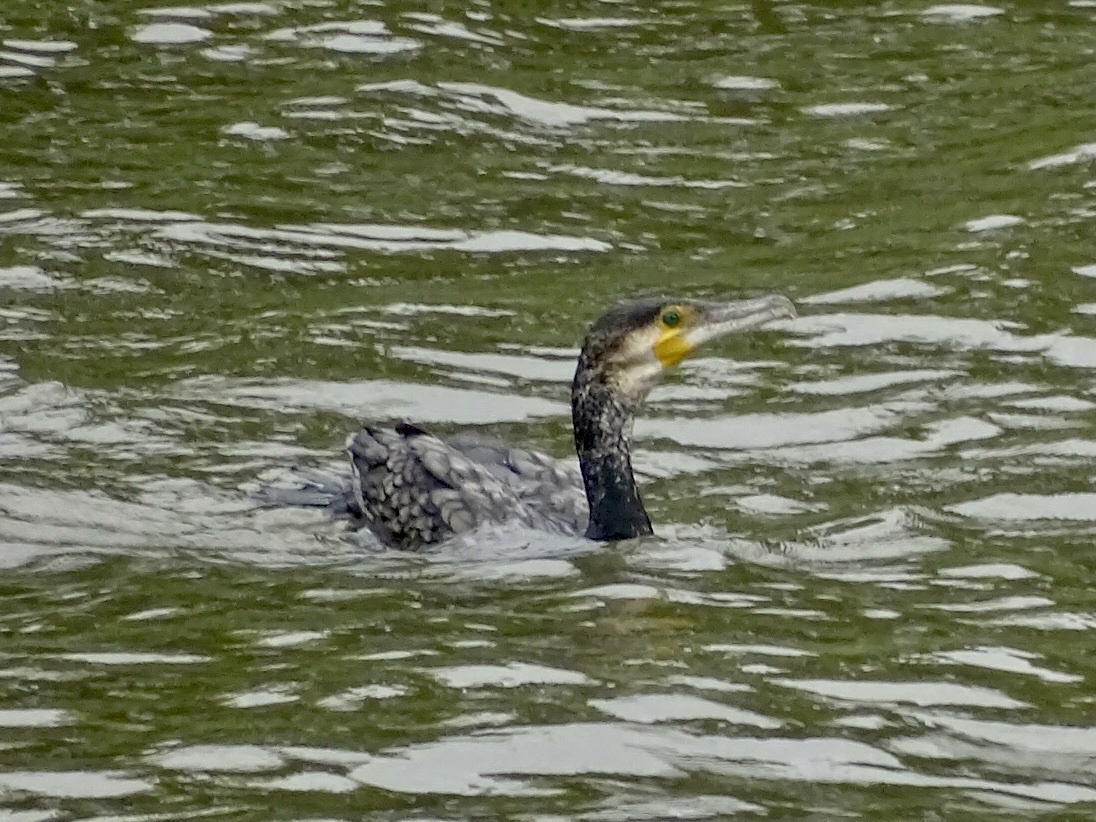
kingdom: Animalia
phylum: Chordata
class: Aves
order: Suliformes
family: Phalacrocoracidae
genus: Phalacrocorax
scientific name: Phalacrocorax carbo
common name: Great cormorant
